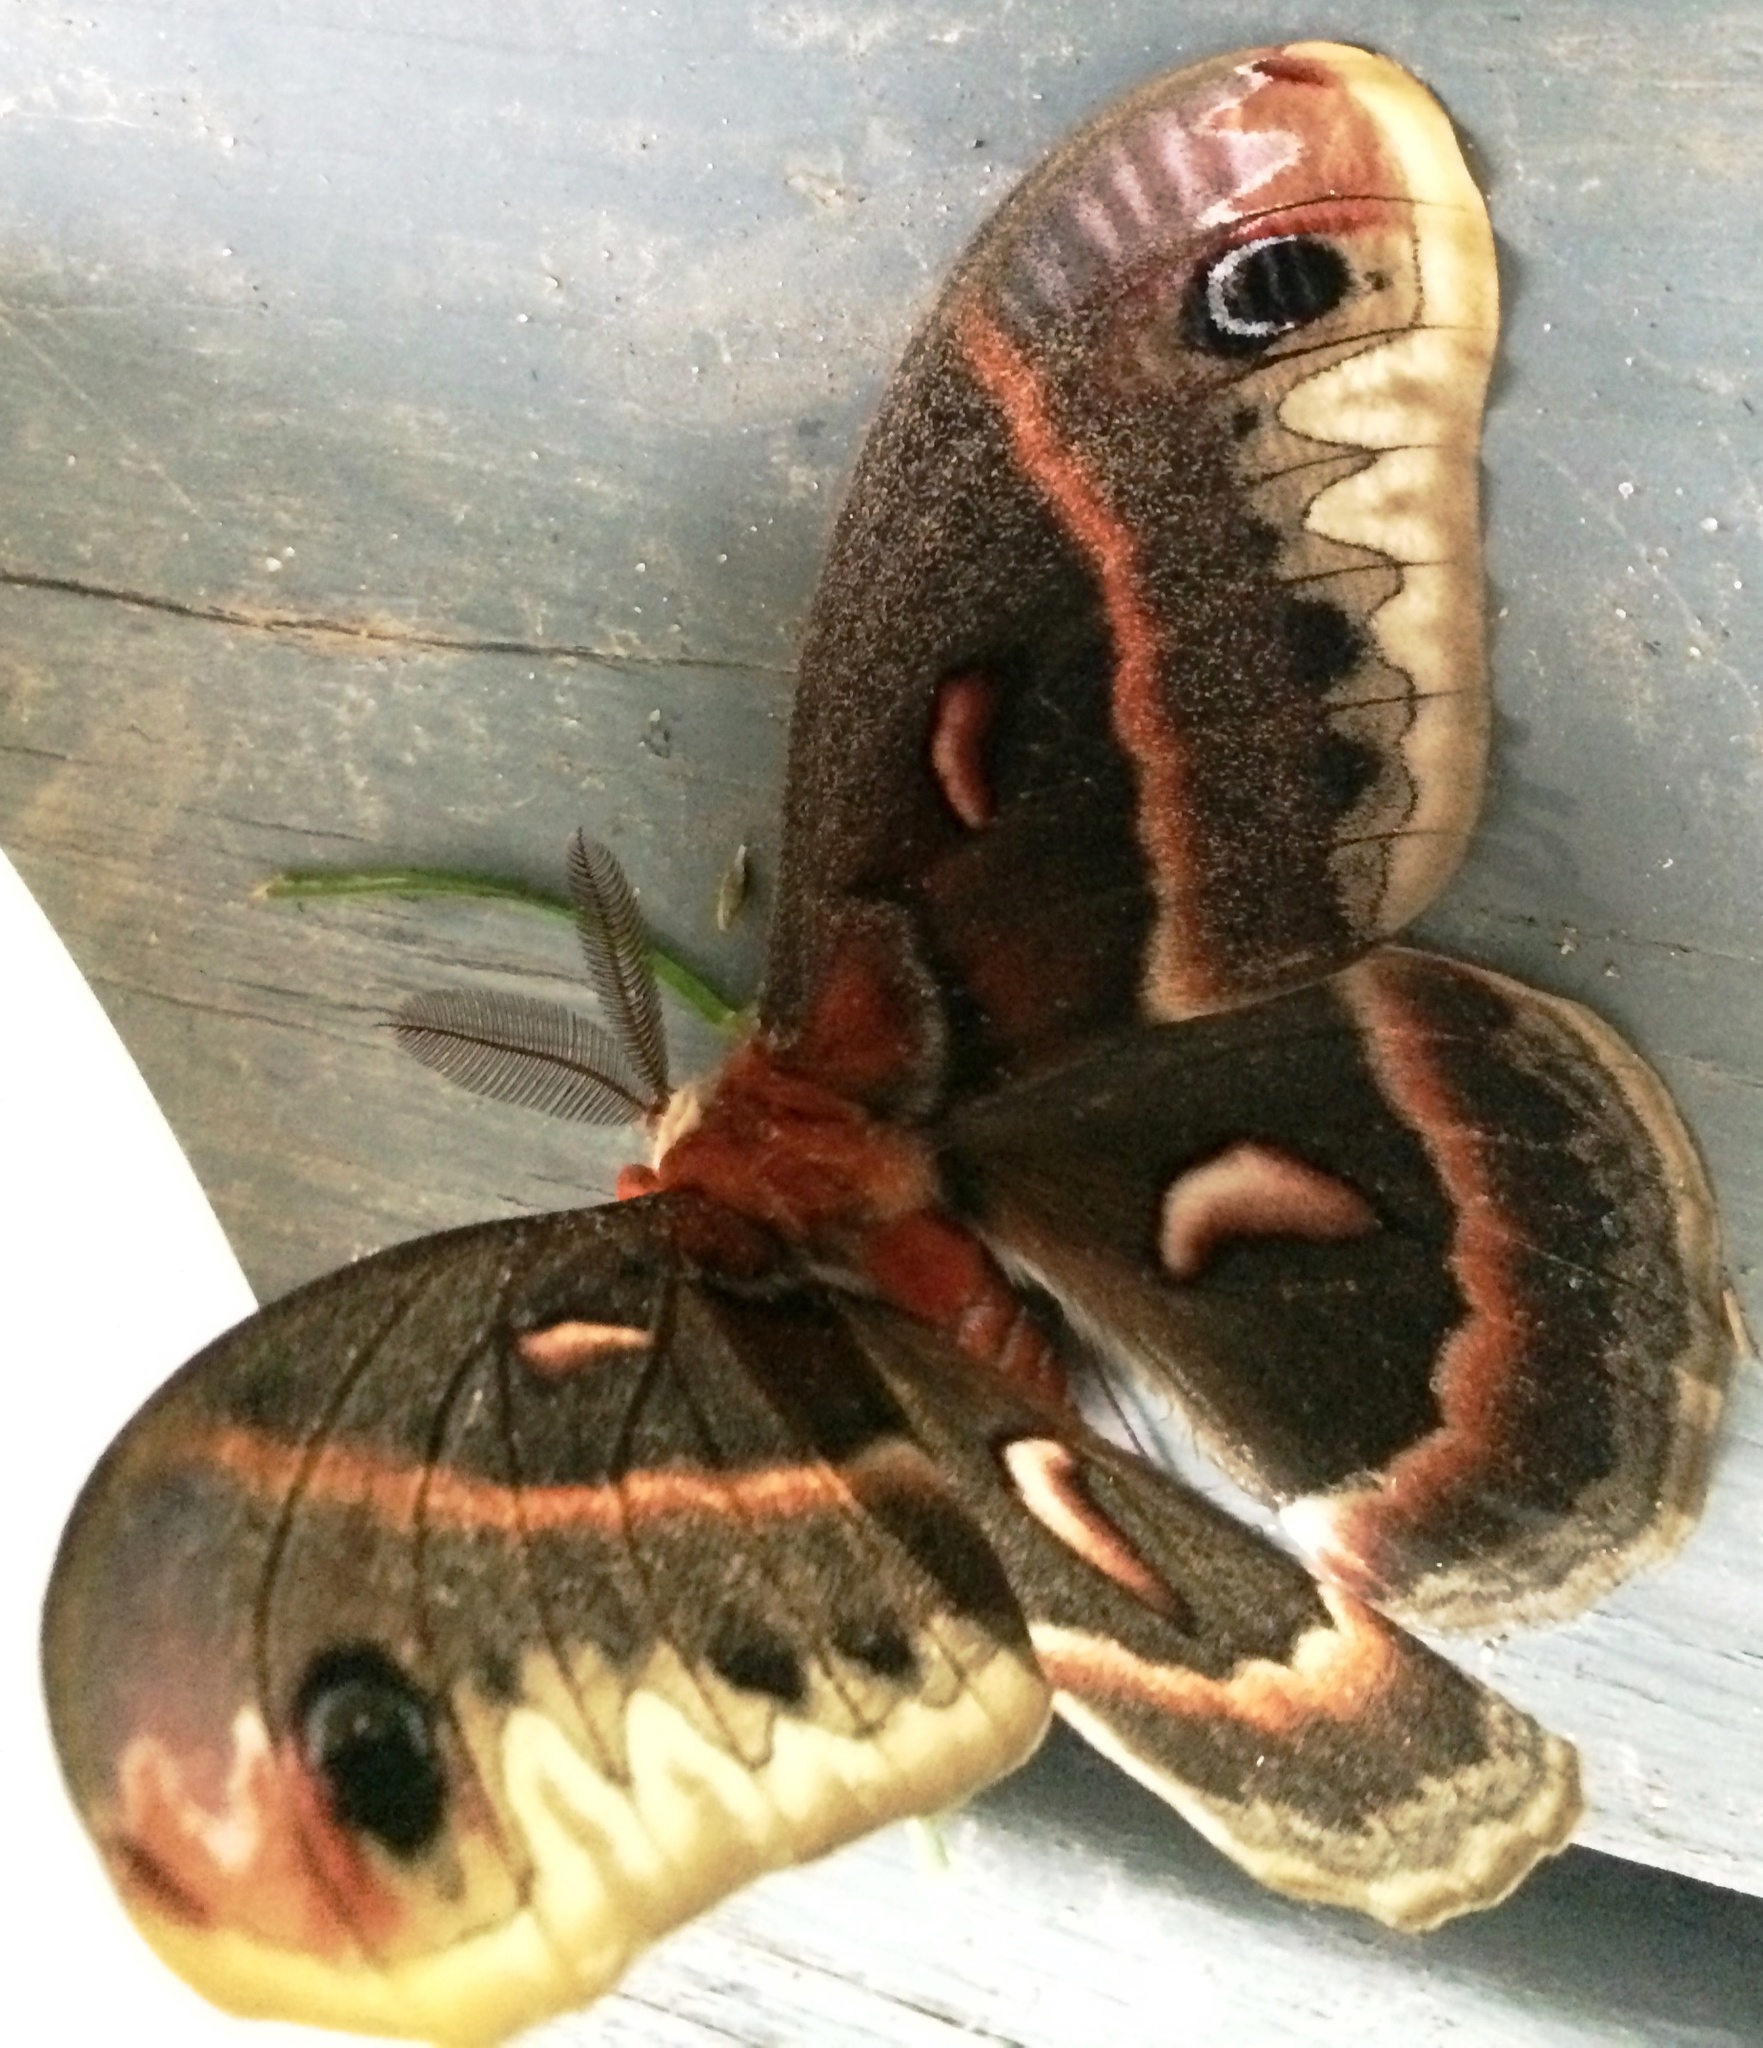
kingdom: Animalia
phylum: Arthropoda
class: Insecta
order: Lepidoptera
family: Saturniidae
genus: Hyalophora
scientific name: Hyalophora cecropia
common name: Cecropia silkmoth
